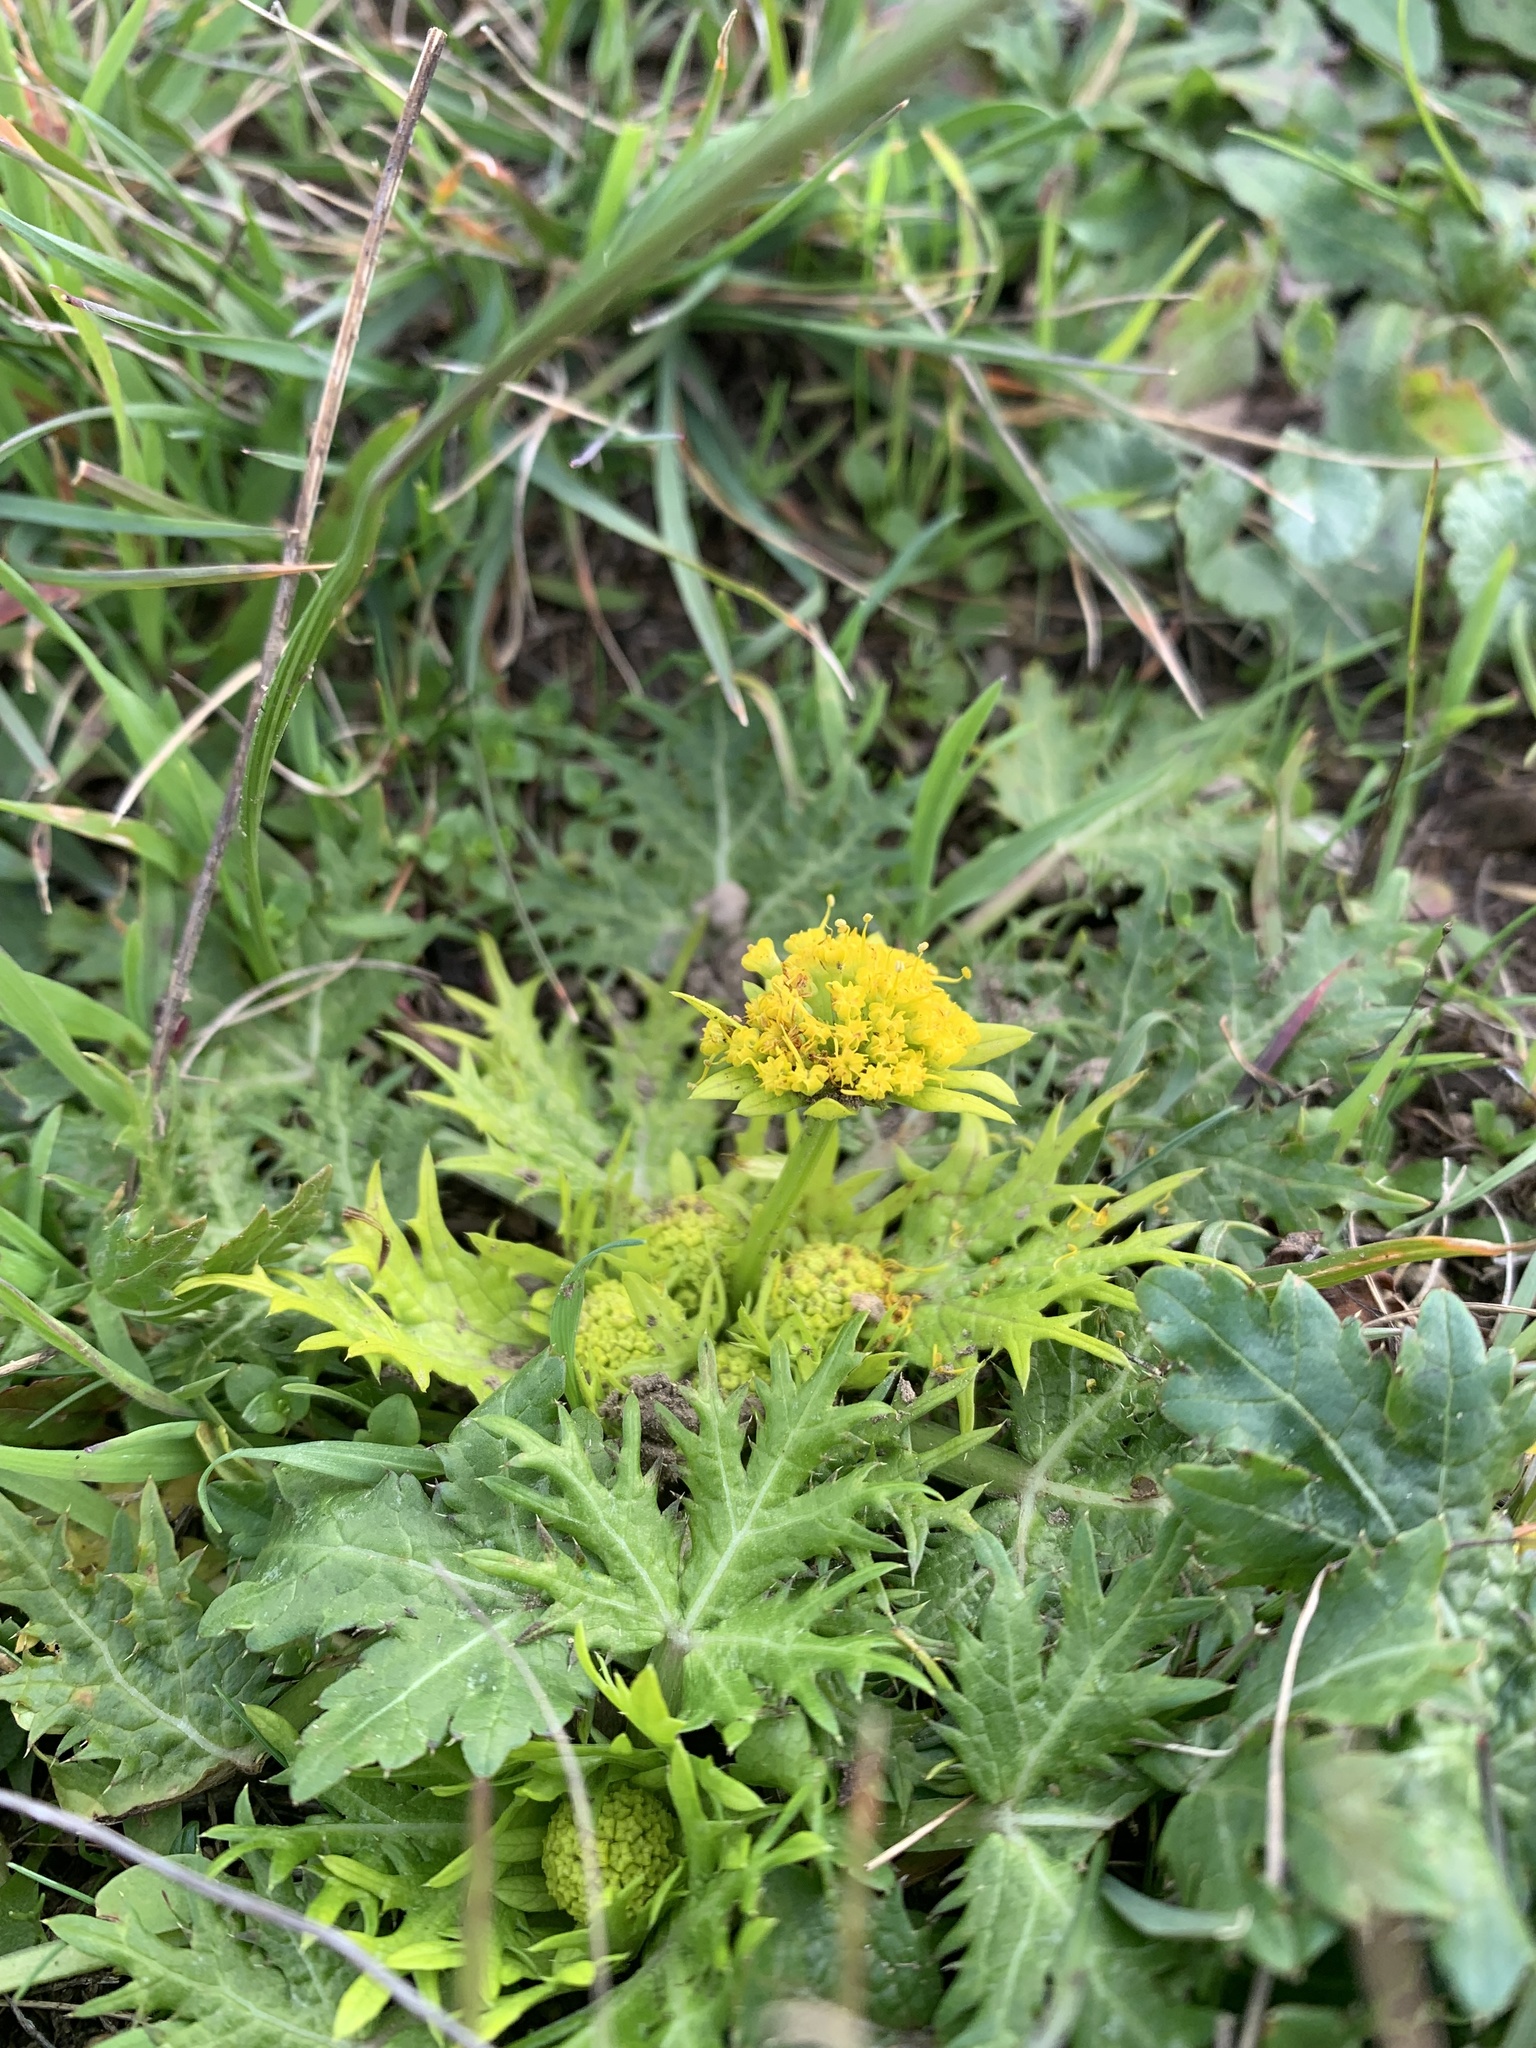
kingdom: Plantae
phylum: Tracheophyta
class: Magnoliopsida
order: Apiales
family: Apiaceae
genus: Sanicula
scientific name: Sanicula arctopoides
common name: Footsteps-of-spring
